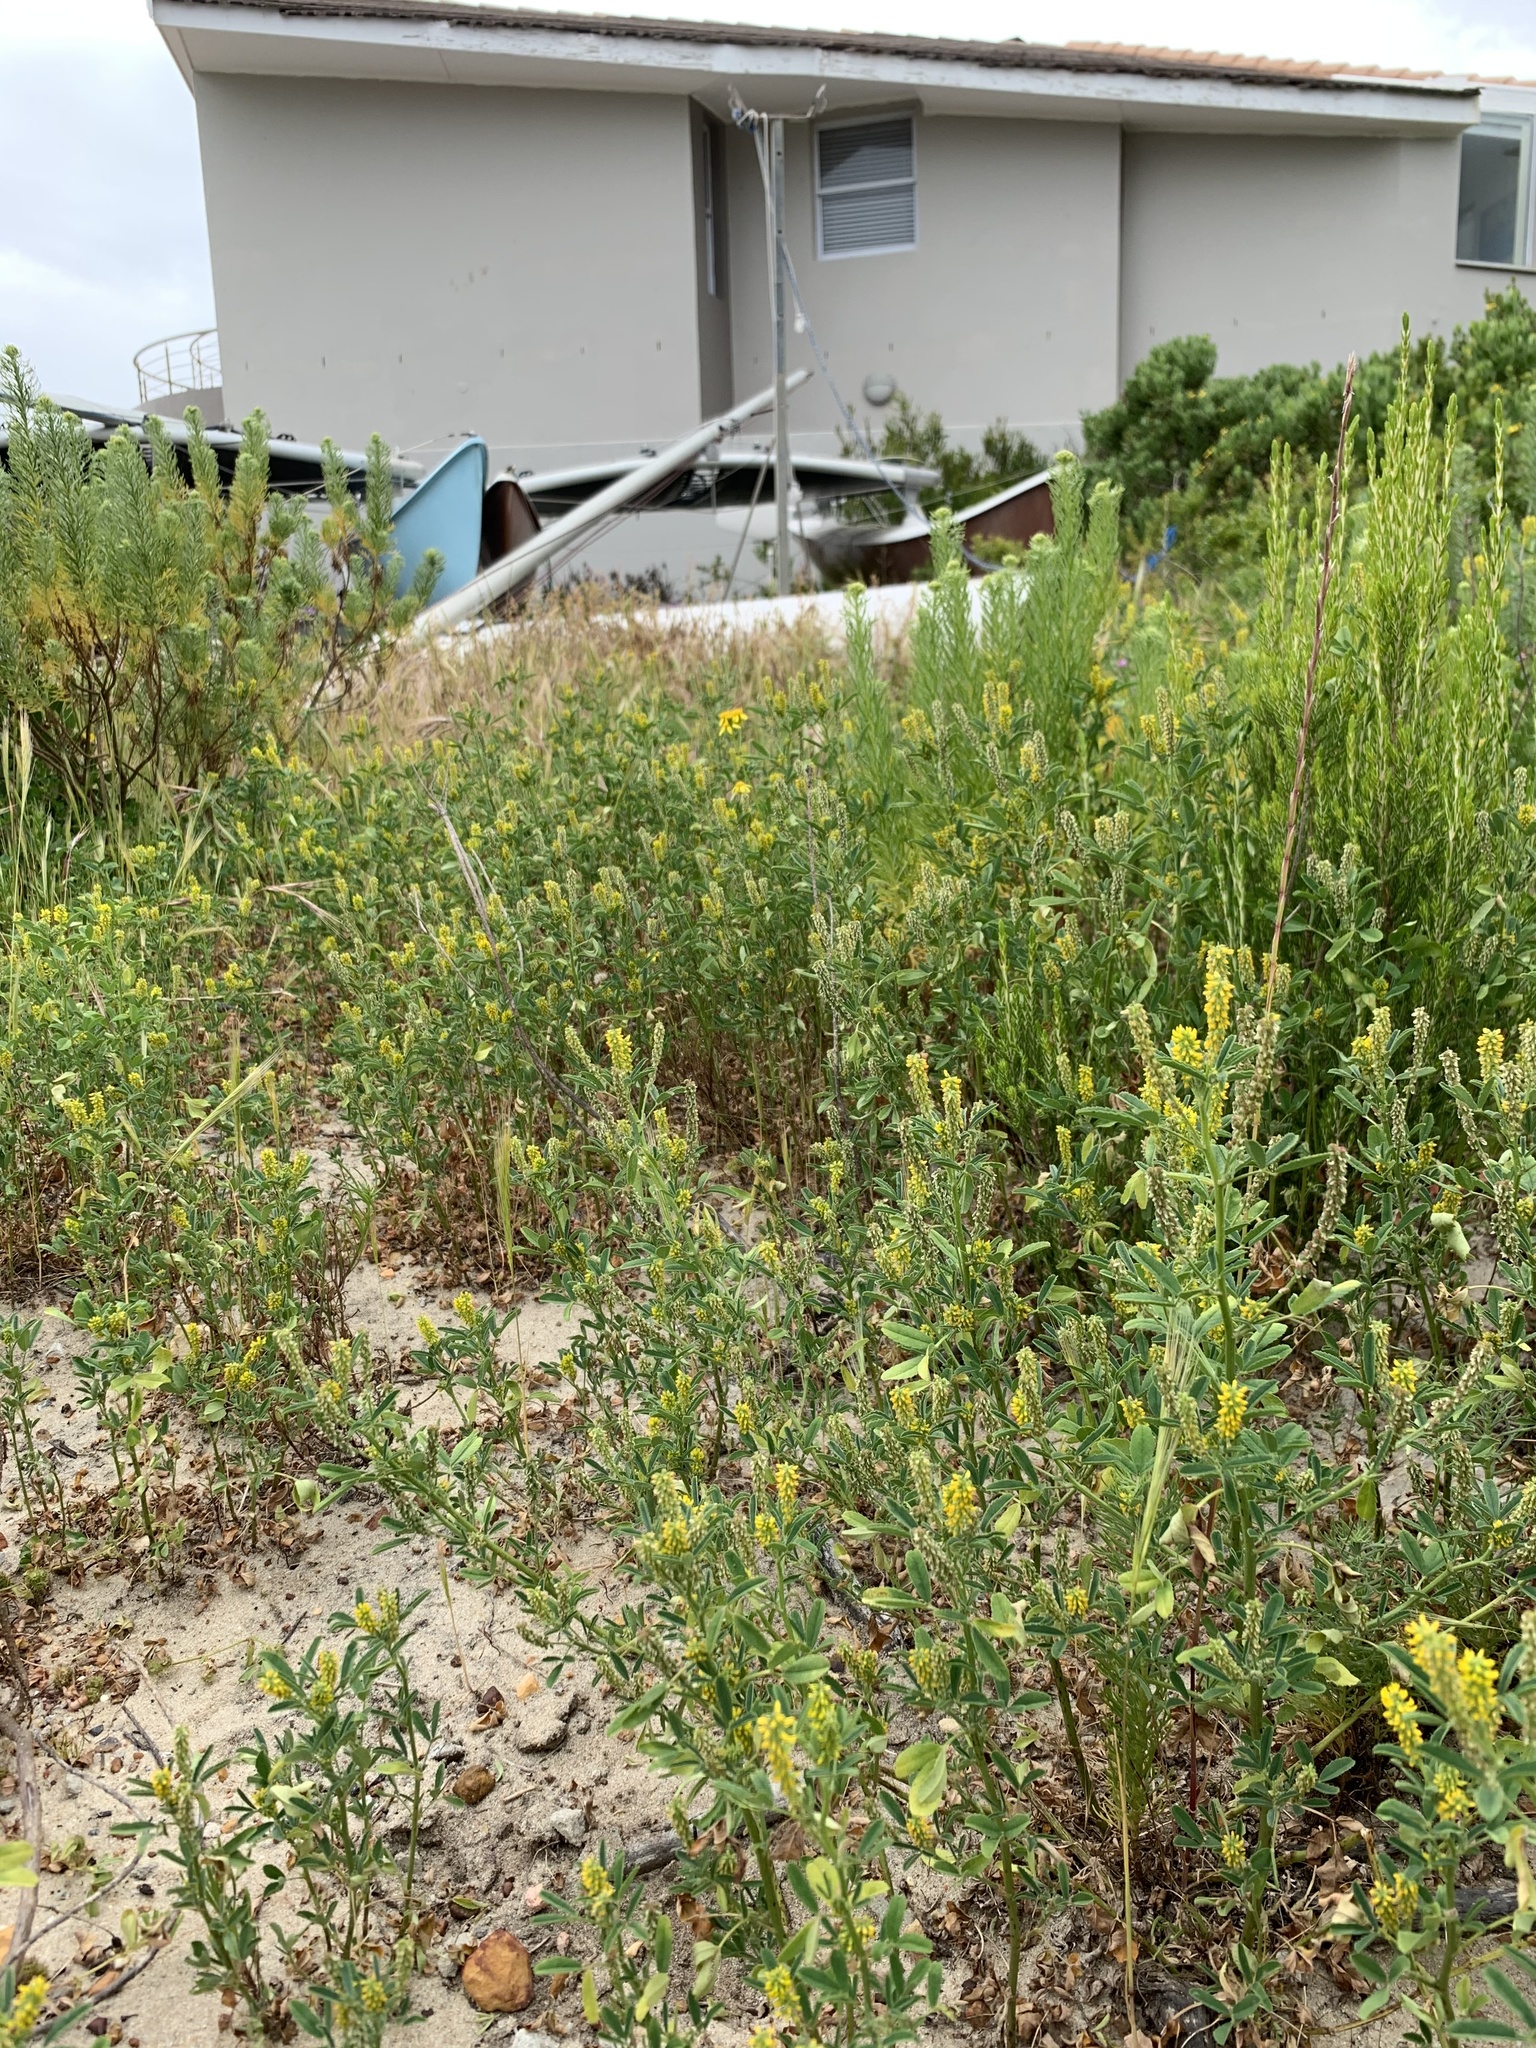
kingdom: Plantae
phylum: Tracheophyta
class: Magnoliopsida
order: Fabales
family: Fabaceae
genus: Melilotus
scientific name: Melilotus indicus
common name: Small melilot
